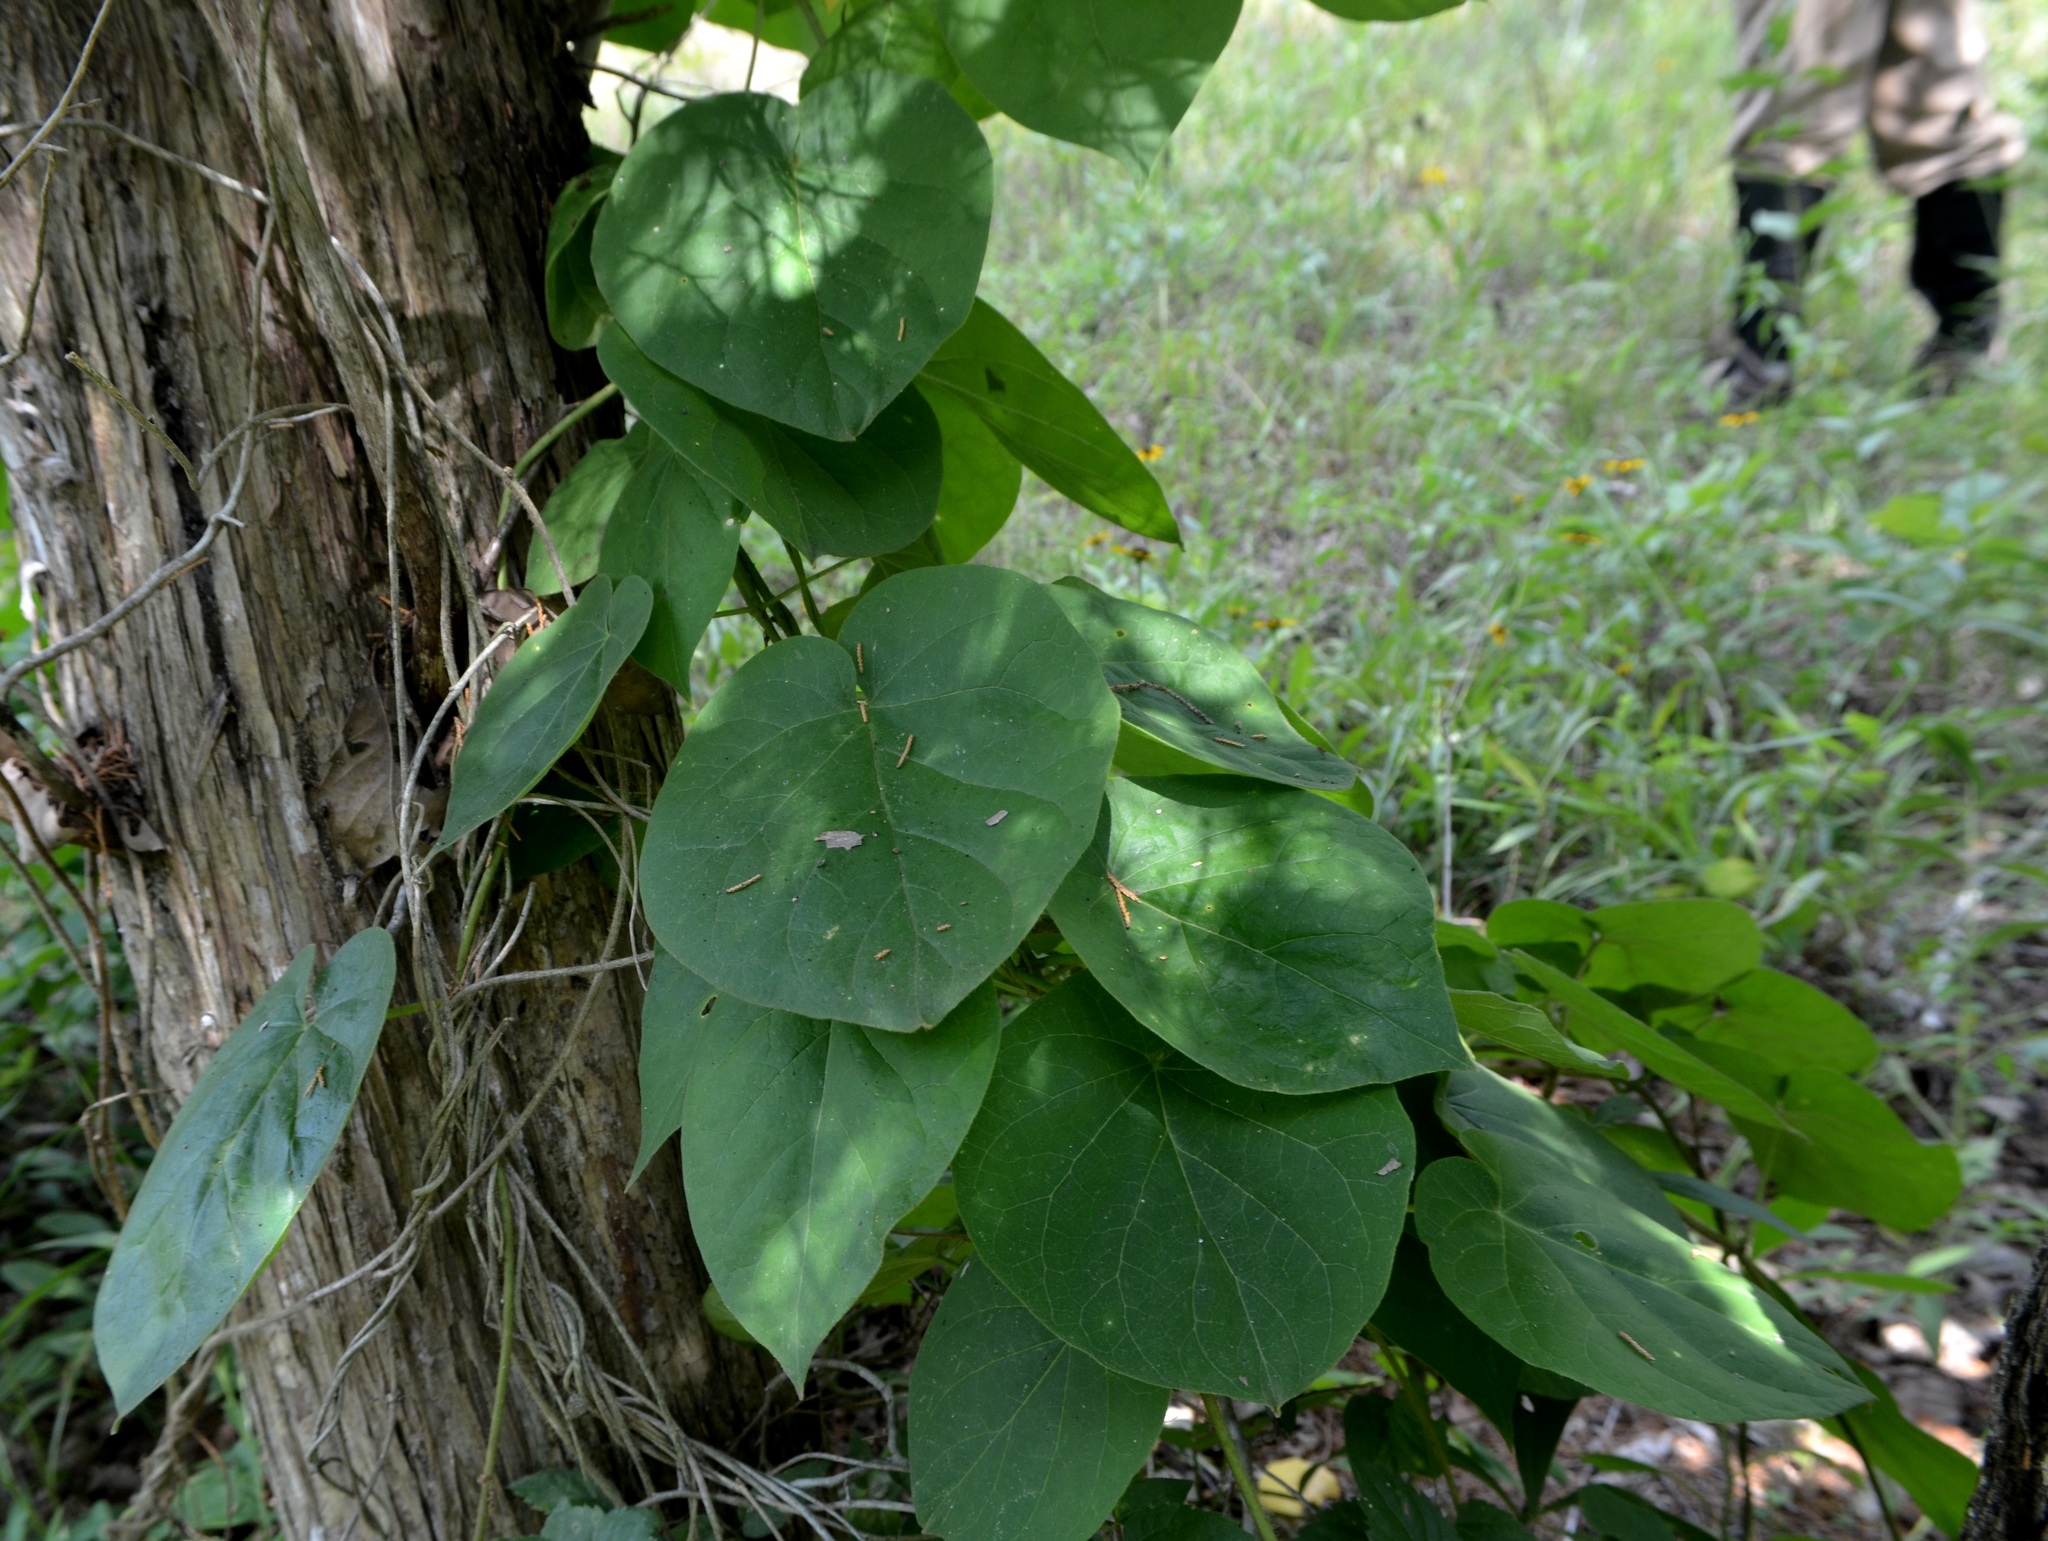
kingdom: Plantae
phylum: Tracheophyta
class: Magnoliopsida
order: Gentianales
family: Apocynaceae
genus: Gonolobus
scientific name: Gonolobus suberosus
